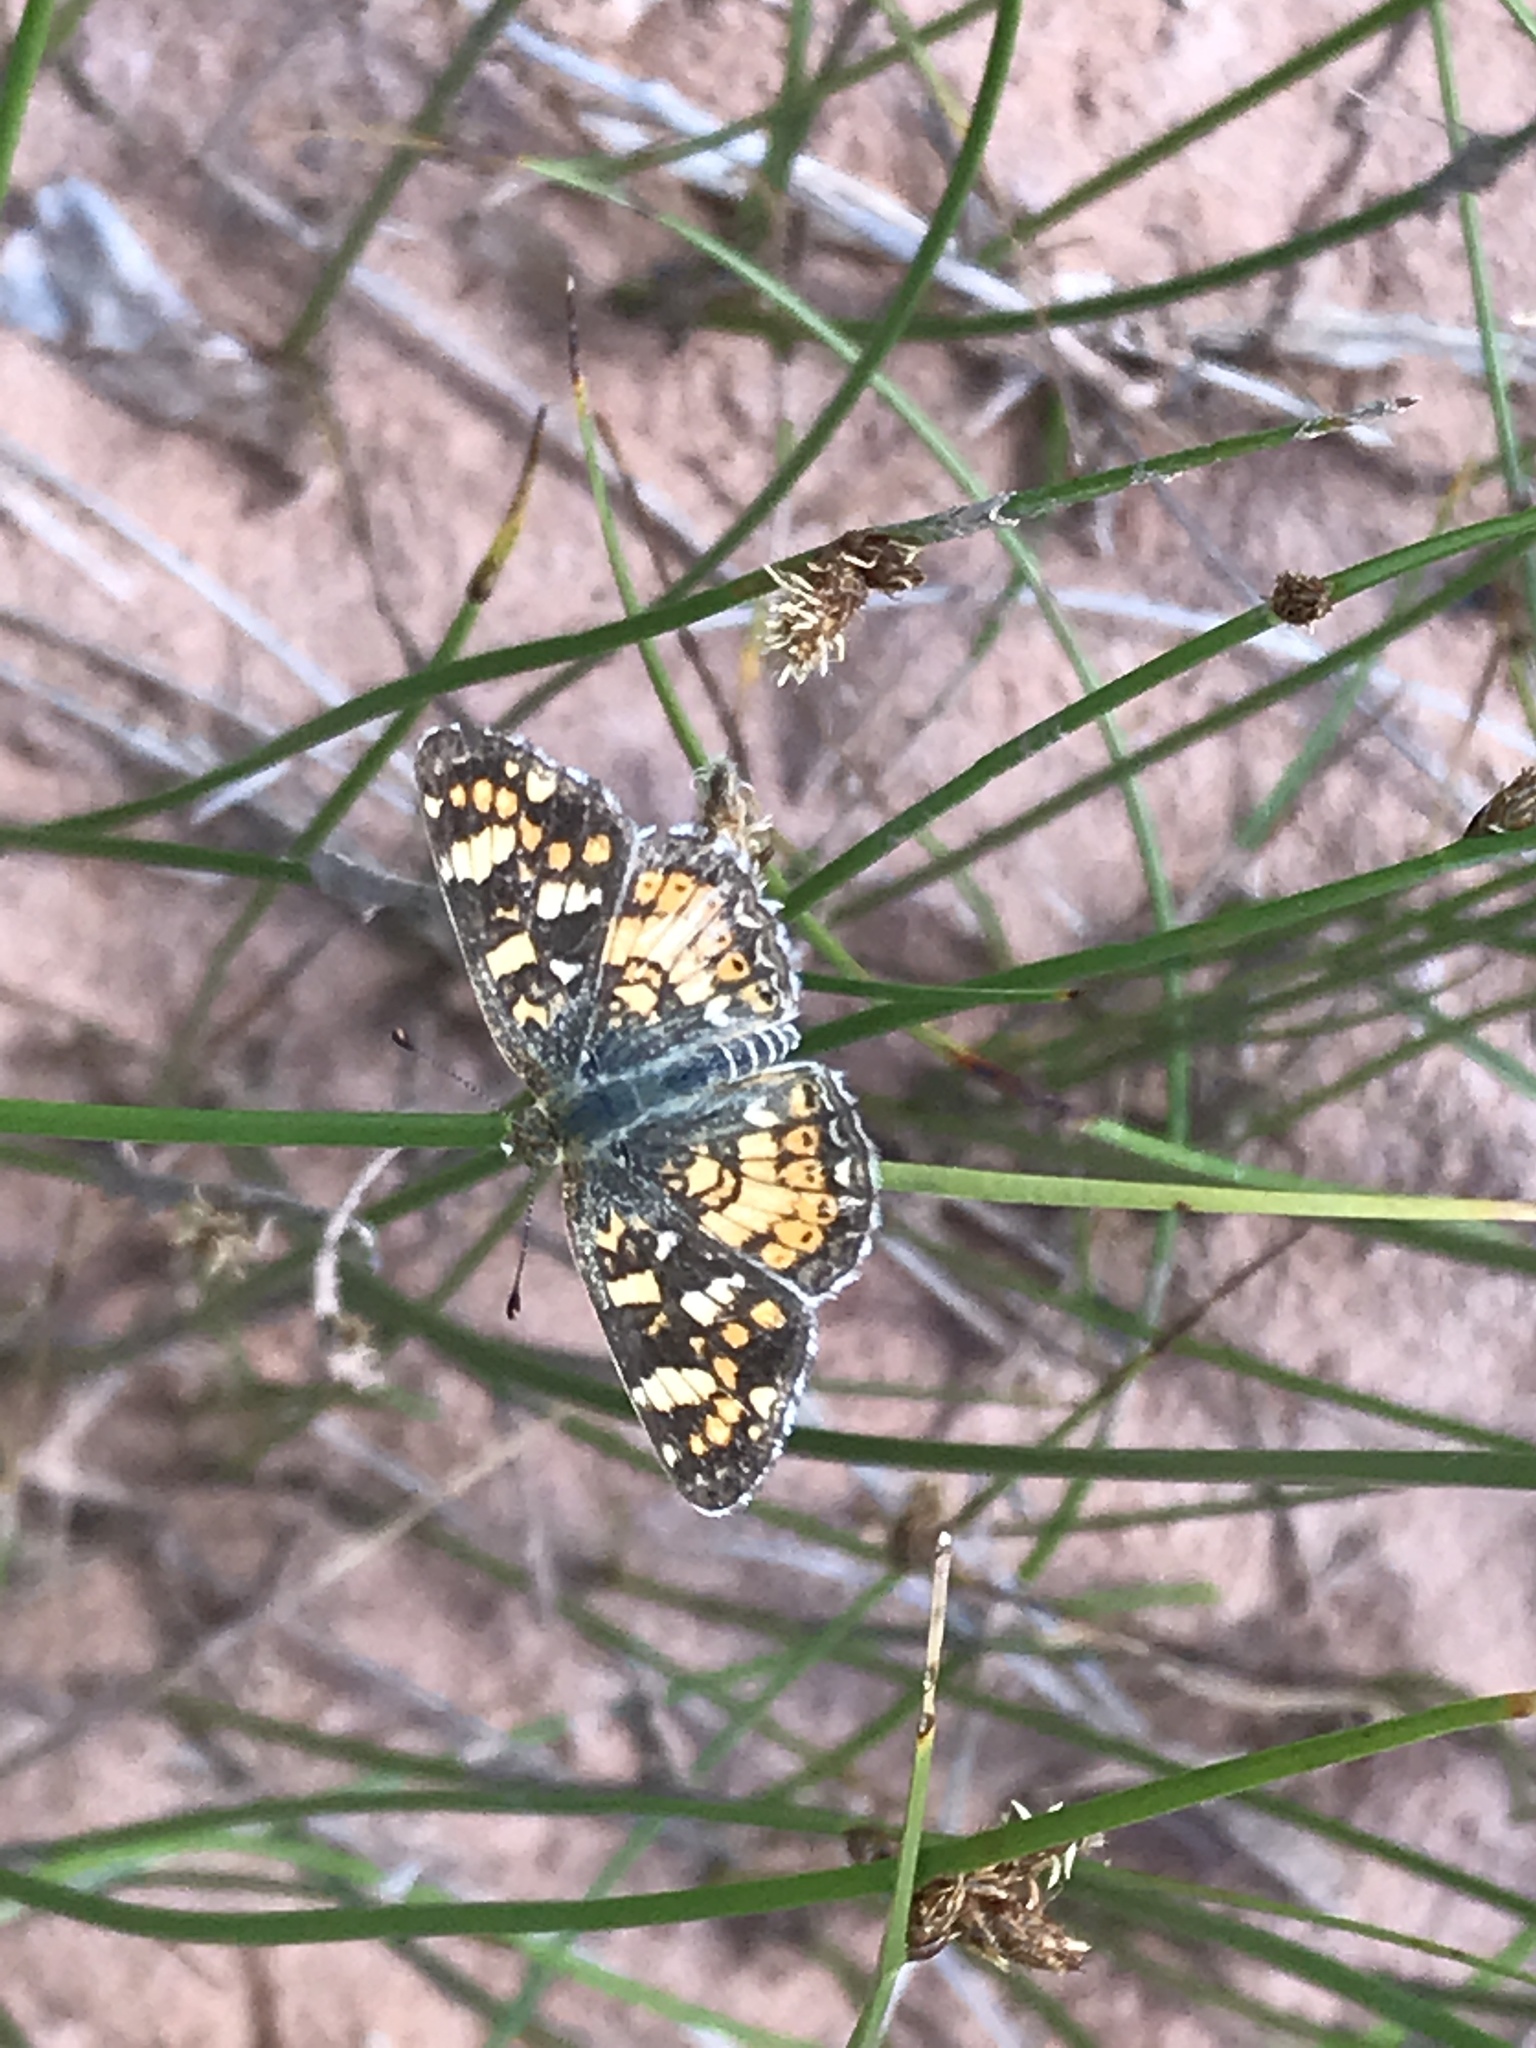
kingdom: Animalia
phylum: Arthropoda
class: Insecta
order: Lepidoptera
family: Nymphalidae
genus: Phyciodes
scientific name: Phyciodes tharos
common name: Pearl crescent
